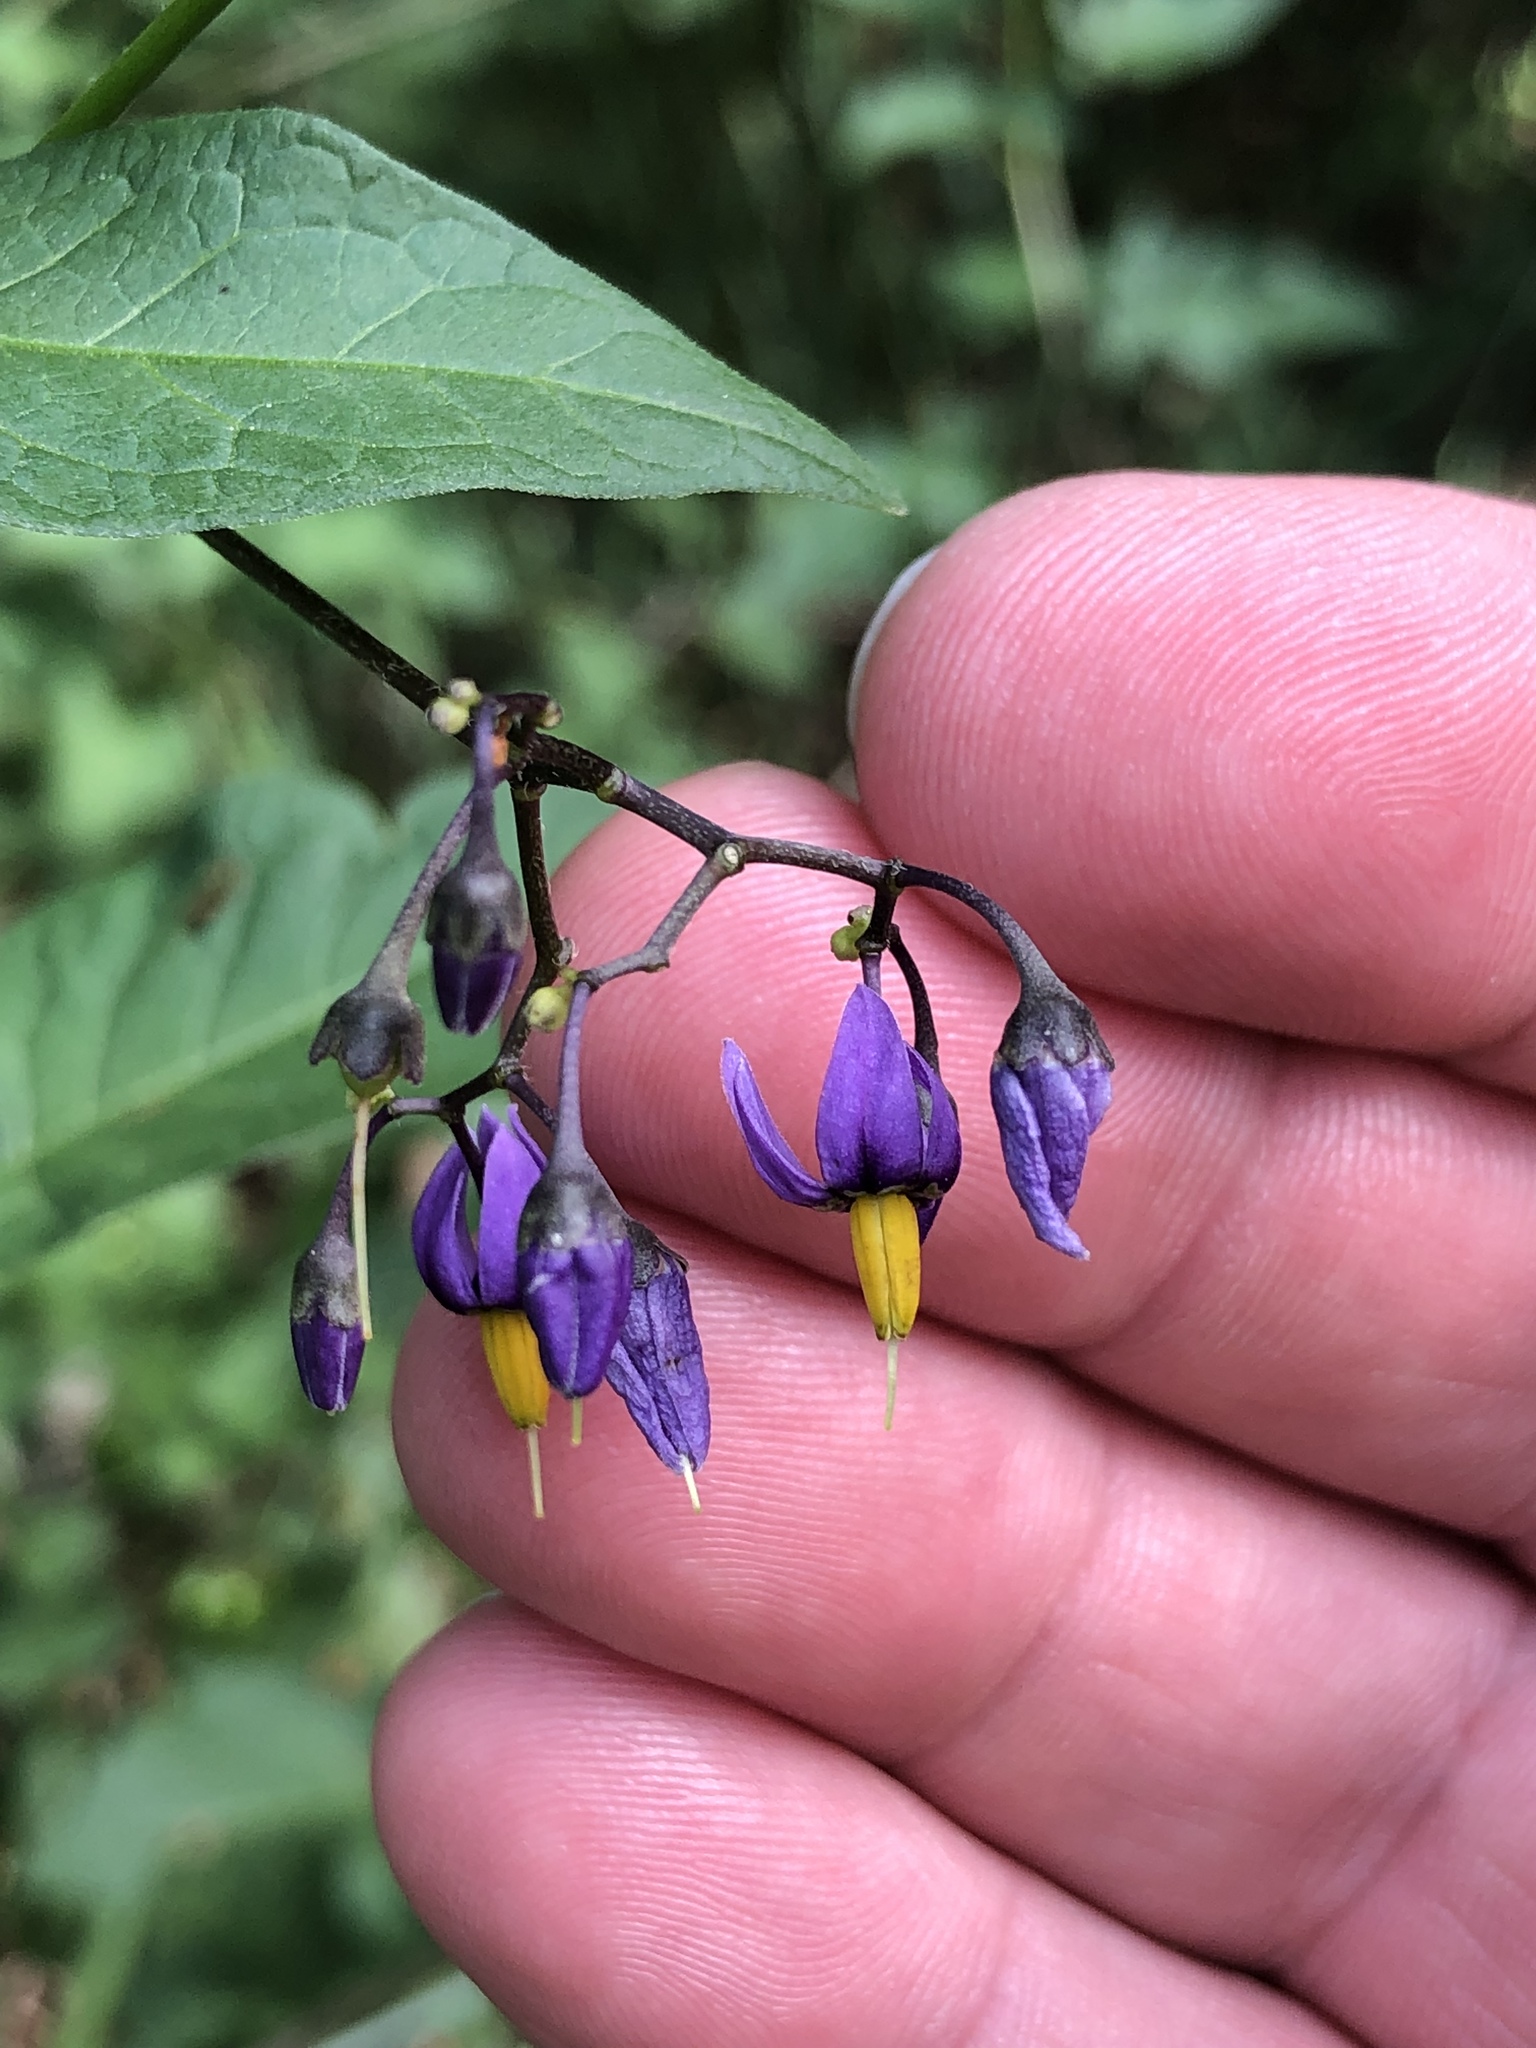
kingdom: Plantae
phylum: Tracheophyta
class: Magnoliopsida
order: Solanales
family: Solanaceae
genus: Solanum
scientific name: Solanum dulcamara
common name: Climbing nightshade
